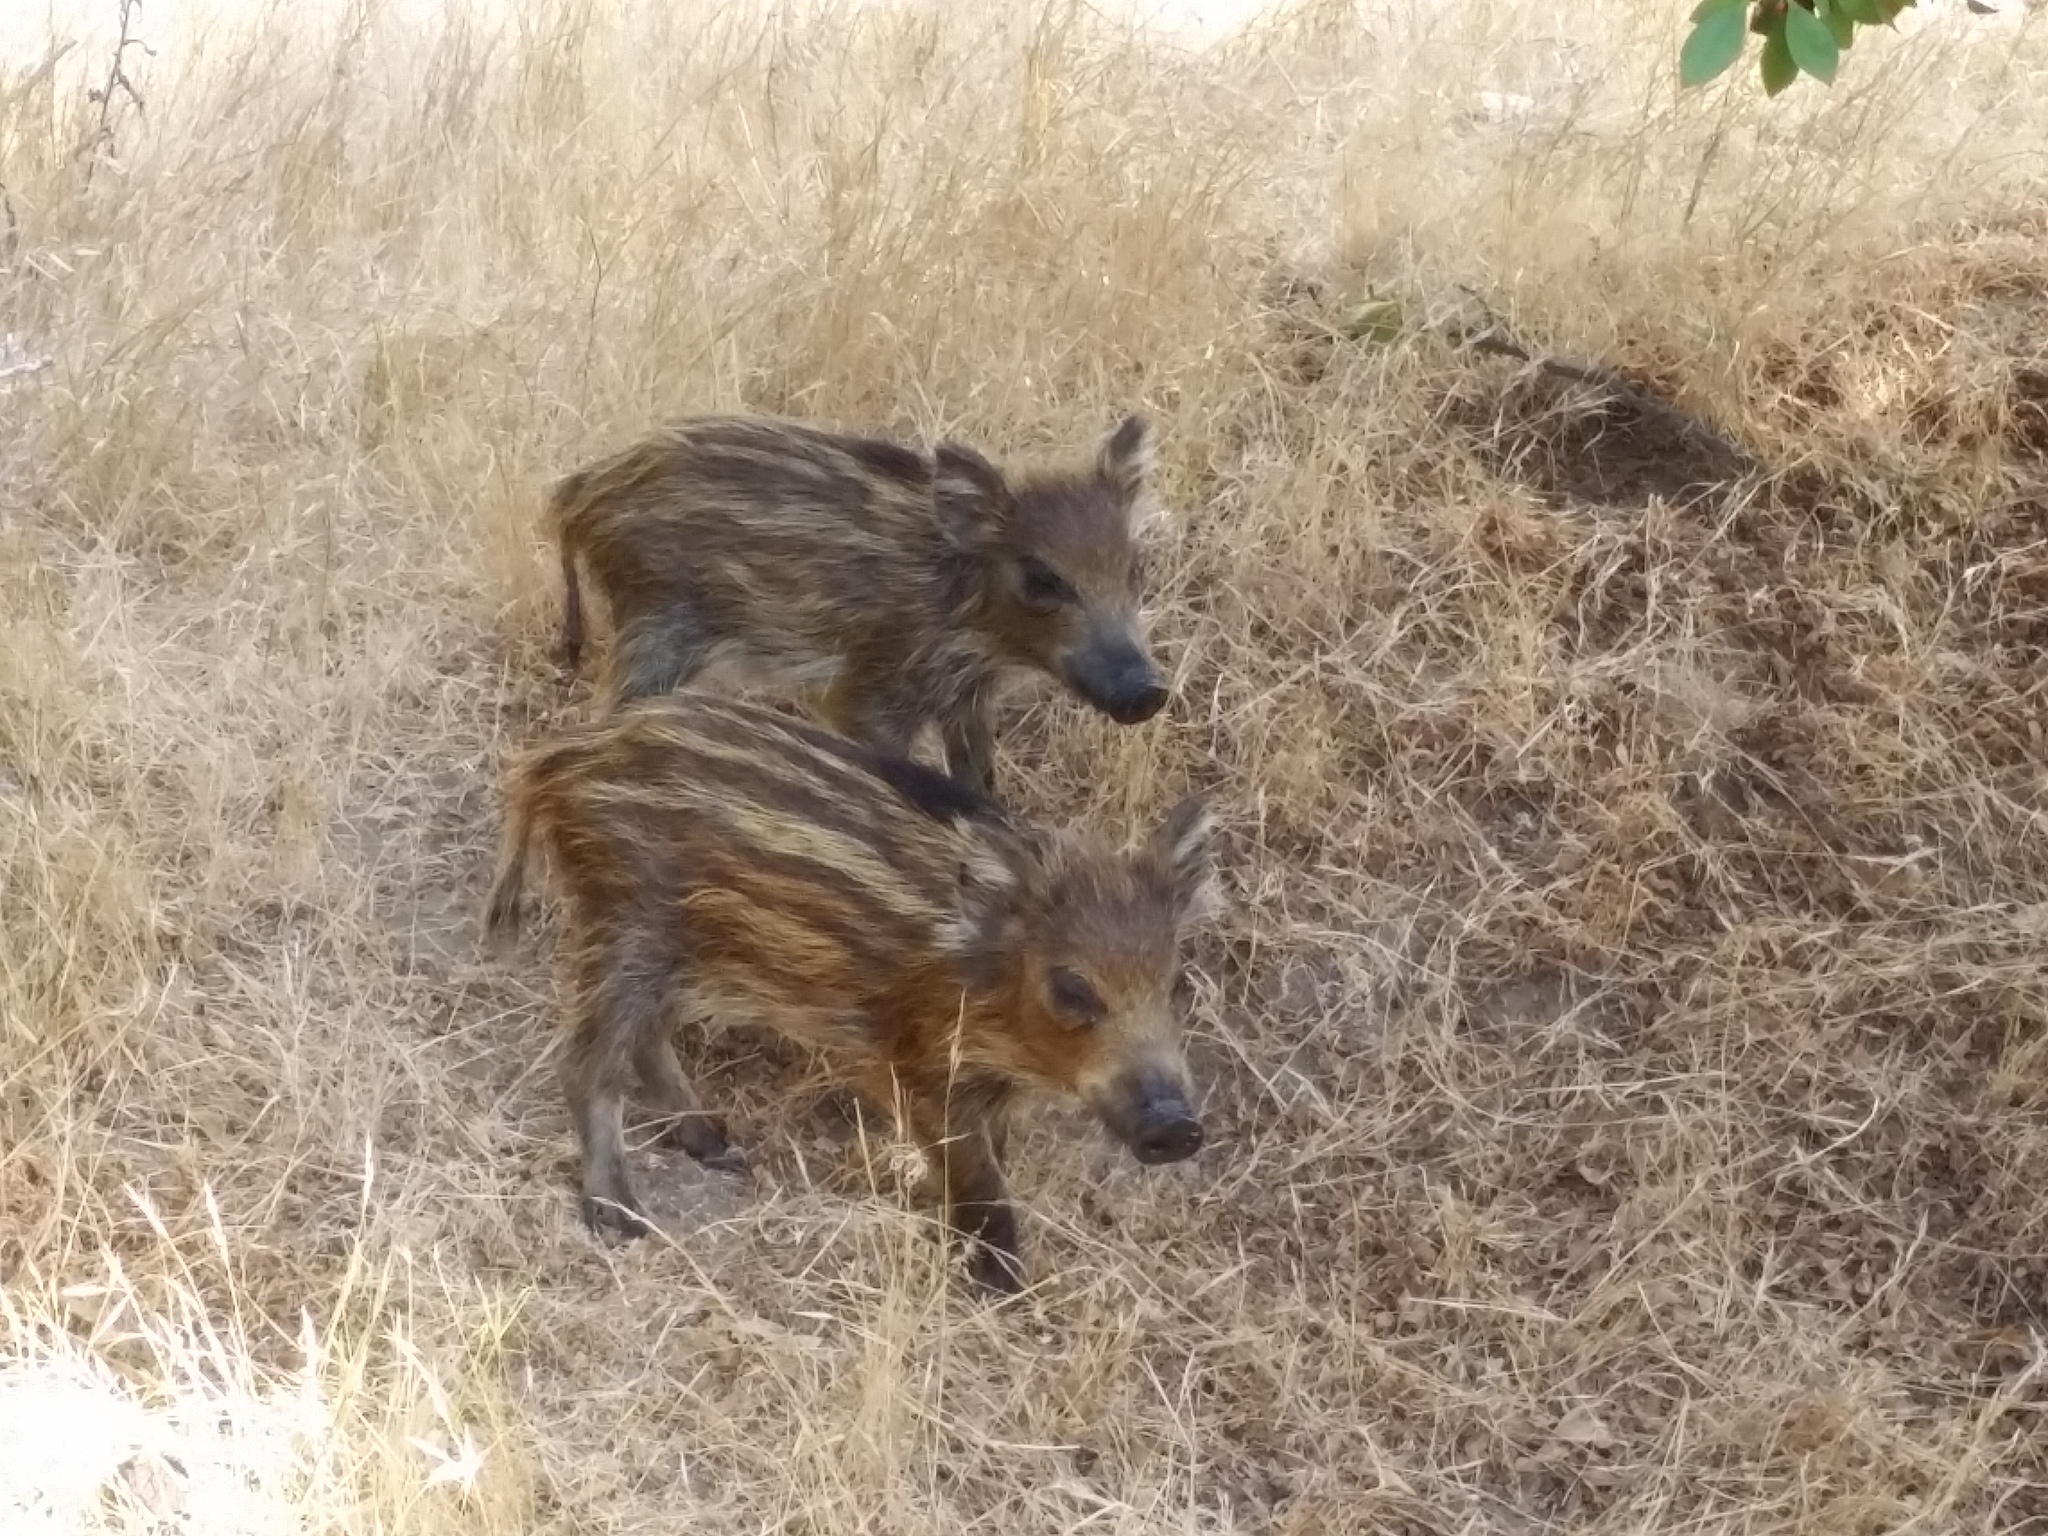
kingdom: Animalia
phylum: Chordata
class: Mammalia
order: Artiodactyla
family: Suidae
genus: Sus
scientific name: Sus scrofa
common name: Wild boar
